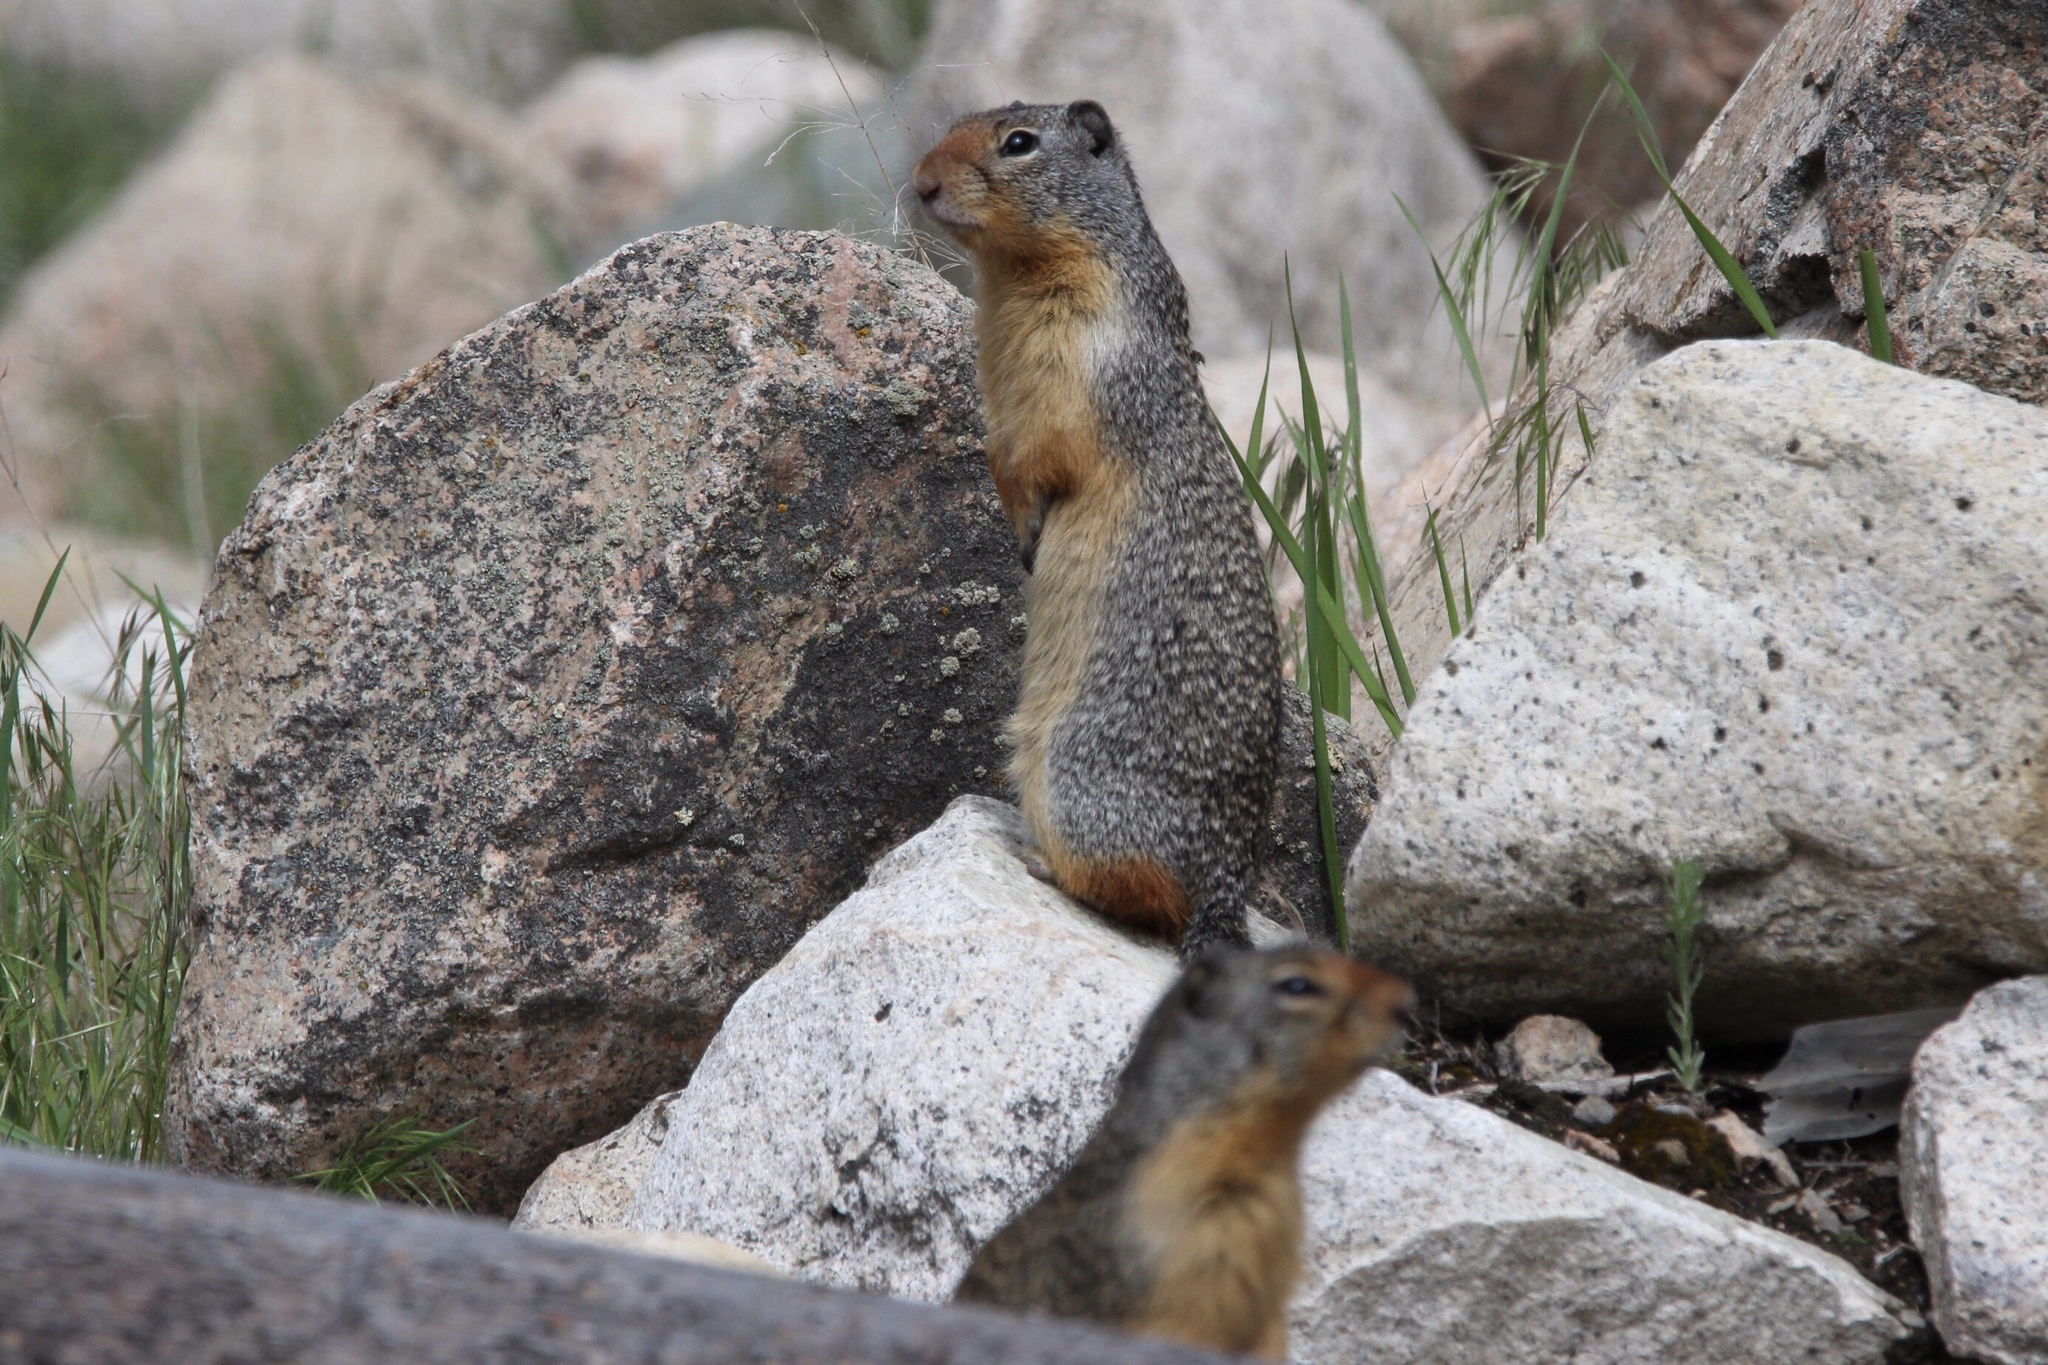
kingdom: Animalia
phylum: Chordata
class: Mammalia
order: Rodentia
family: Sciuridae
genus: Urocitellus
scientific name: Urocitellus columbianus
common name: Columbian ground squirrel
